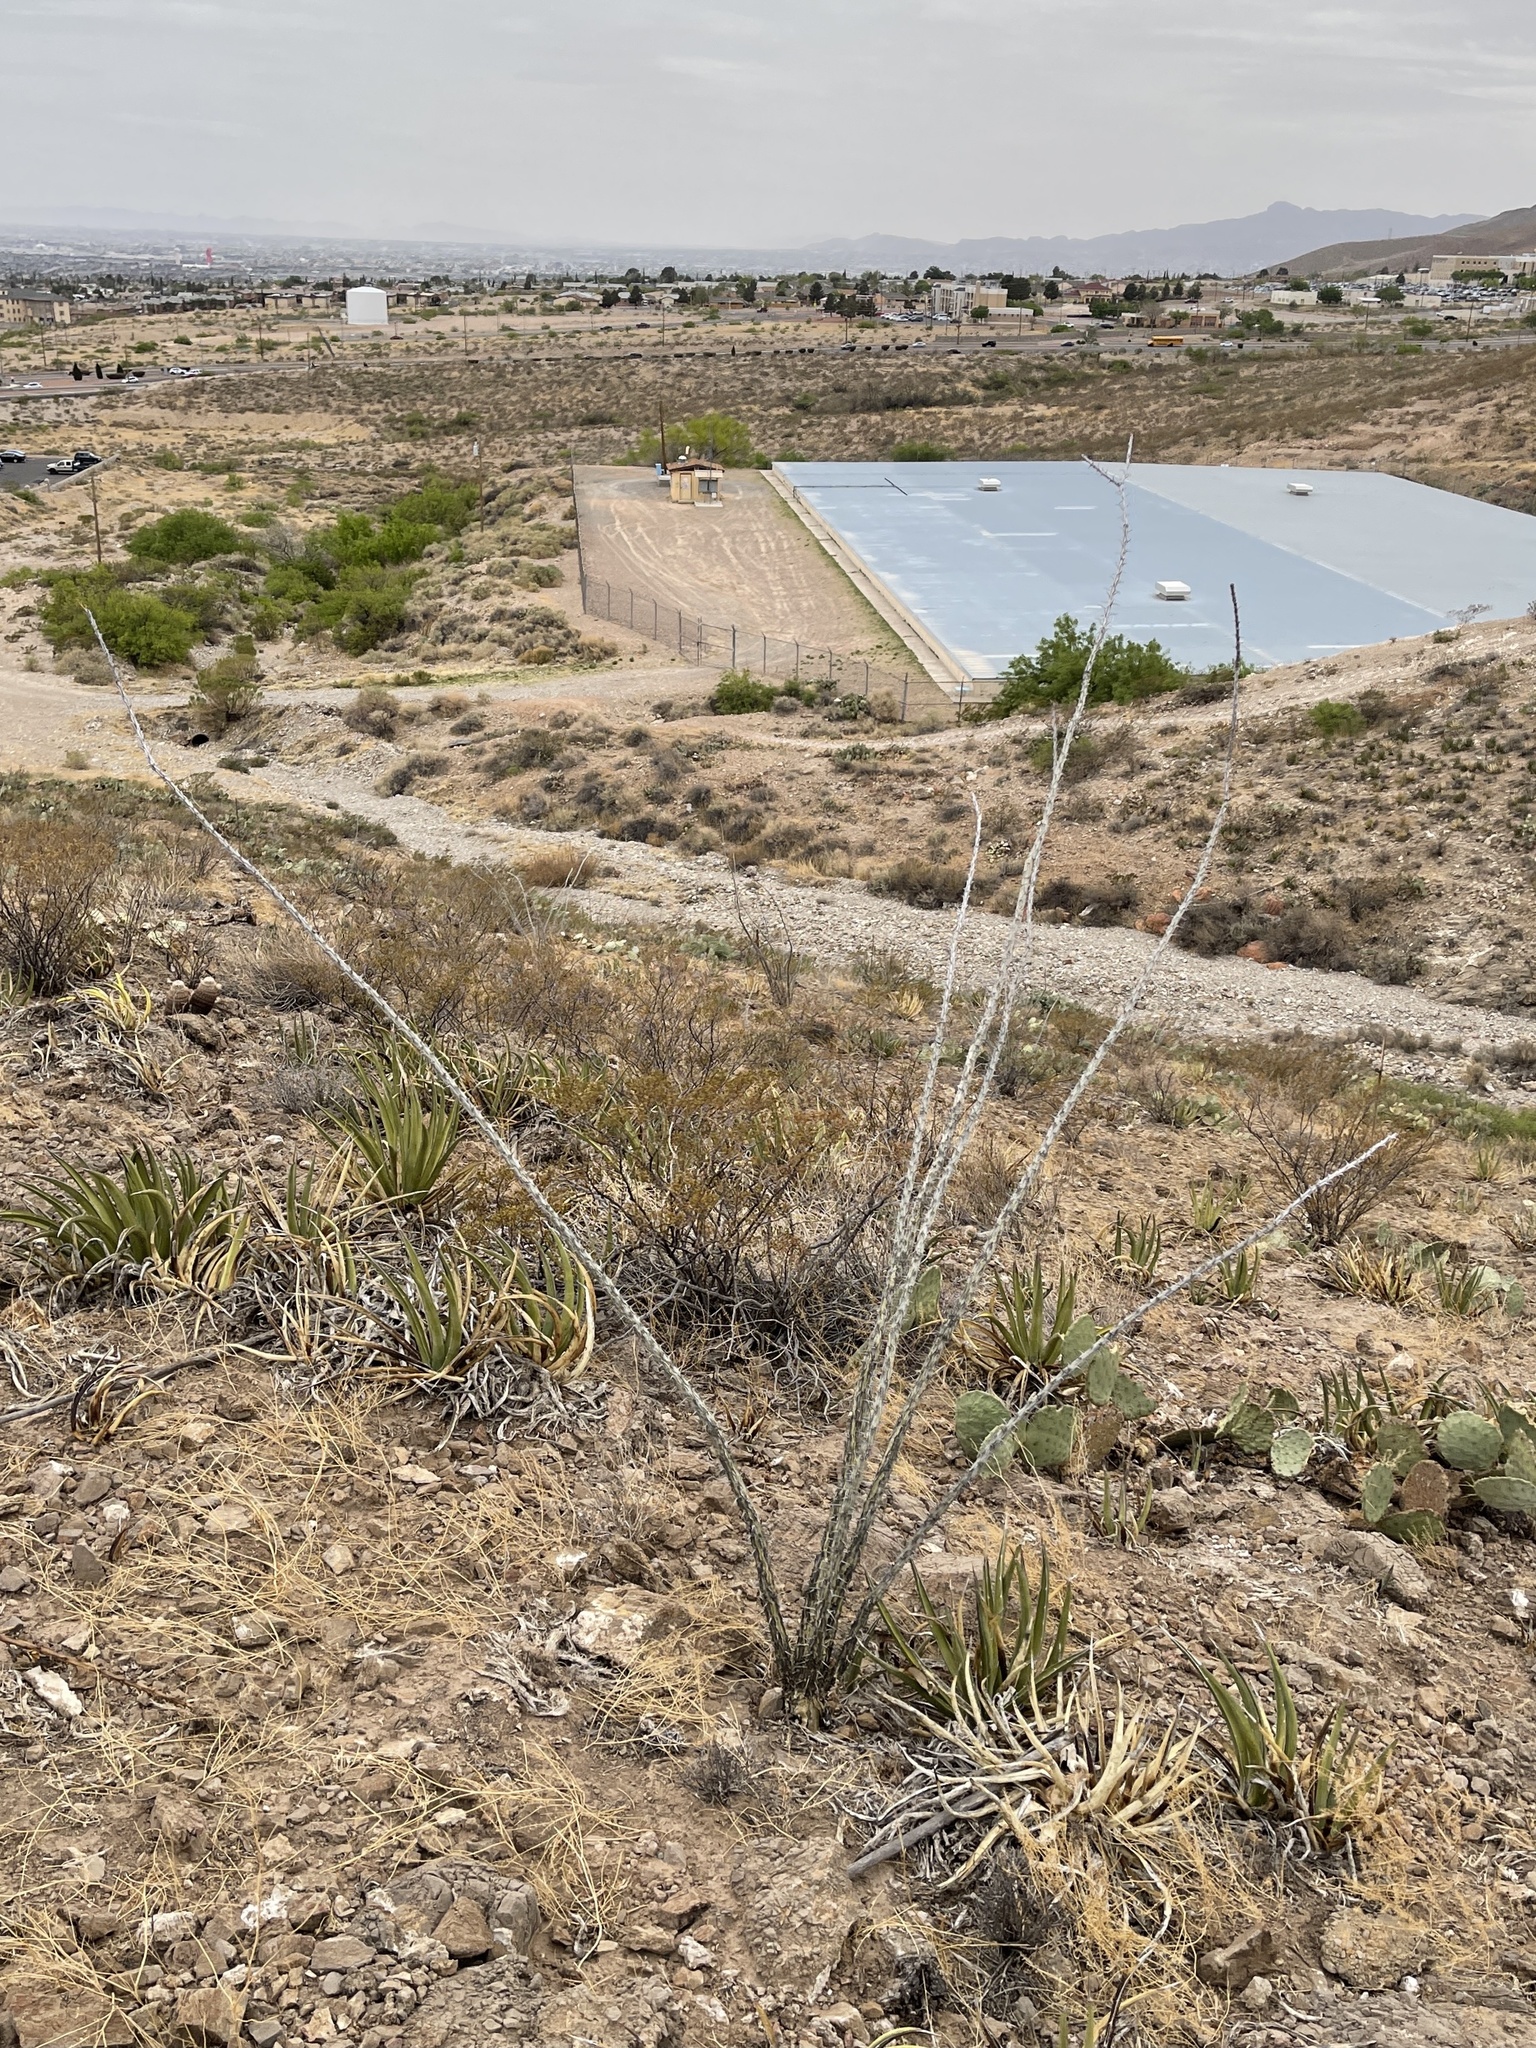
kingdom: Plantae
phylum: Tracheophyta
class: Magnoliopsida
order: Ericales
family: Fouquieriaceae
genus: Fouquieria
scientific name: Fouquieria splendens
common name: Vine-cactus
